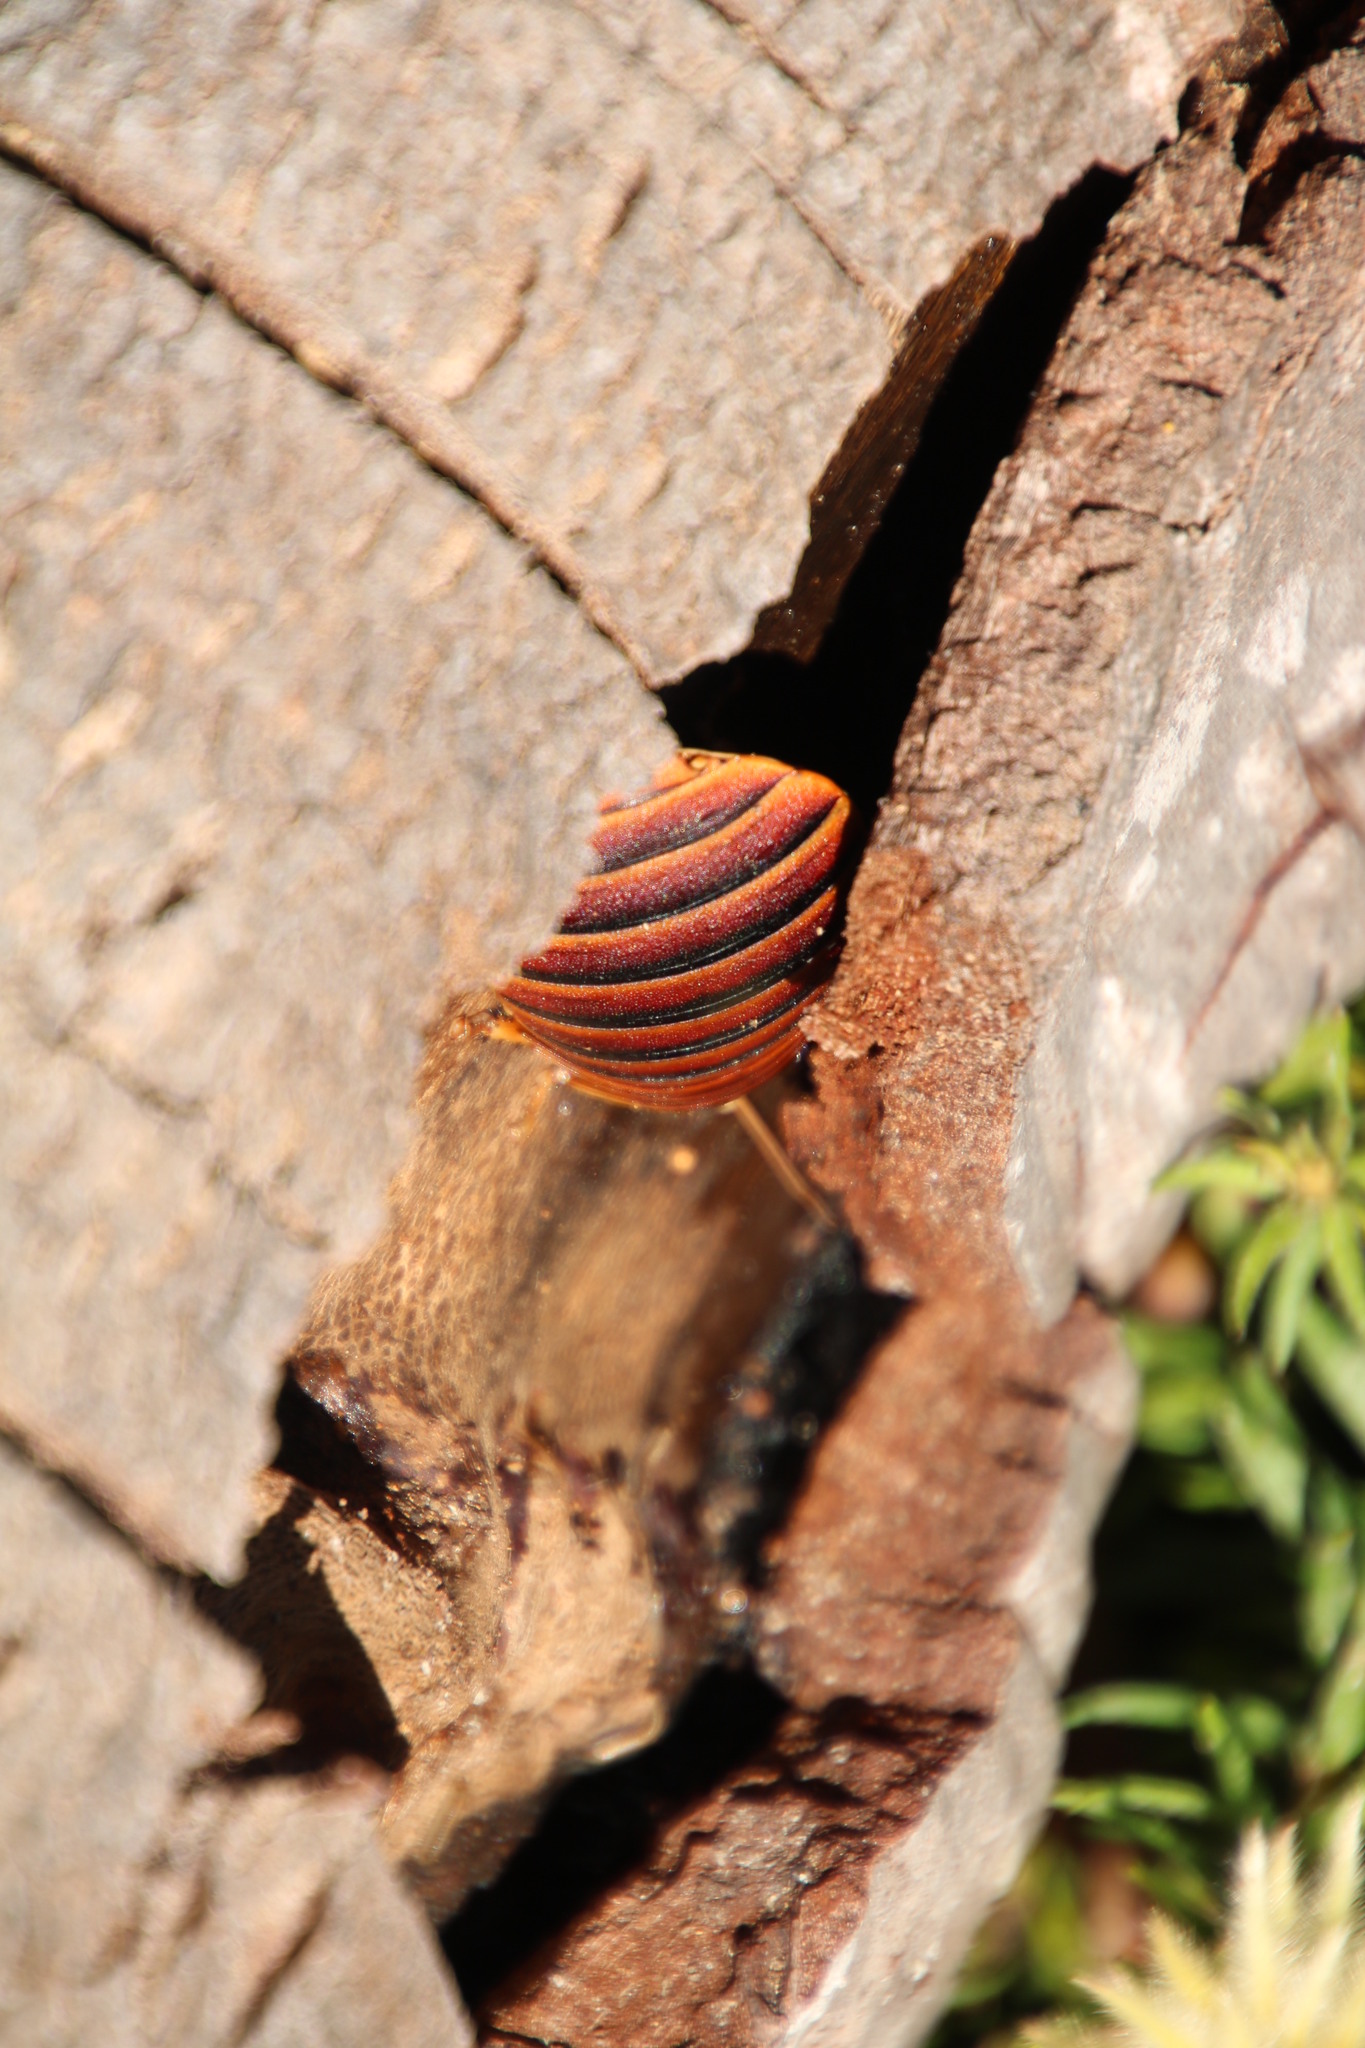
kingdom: Animalia
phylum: Arthropoda
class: Insecta
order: Blattodea
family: Blaberidae
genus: Aptera
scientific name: Aptera fusca
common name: Cape mountain cockroach
